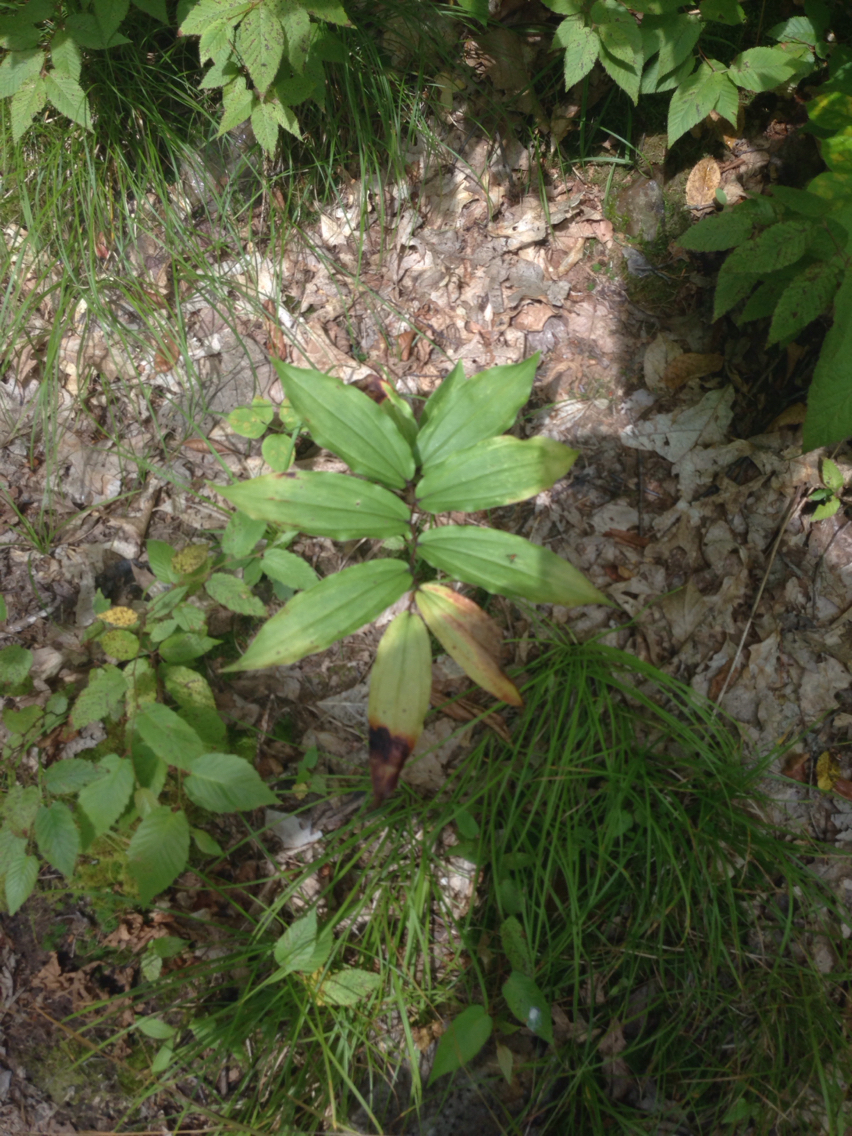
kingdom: Plantae
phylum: Tracheophyta
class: Liliopsida
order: Asparagales
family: Asparagaceae
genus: Maianthemum
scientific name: Maianthemum racemosum
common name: False spikenard
